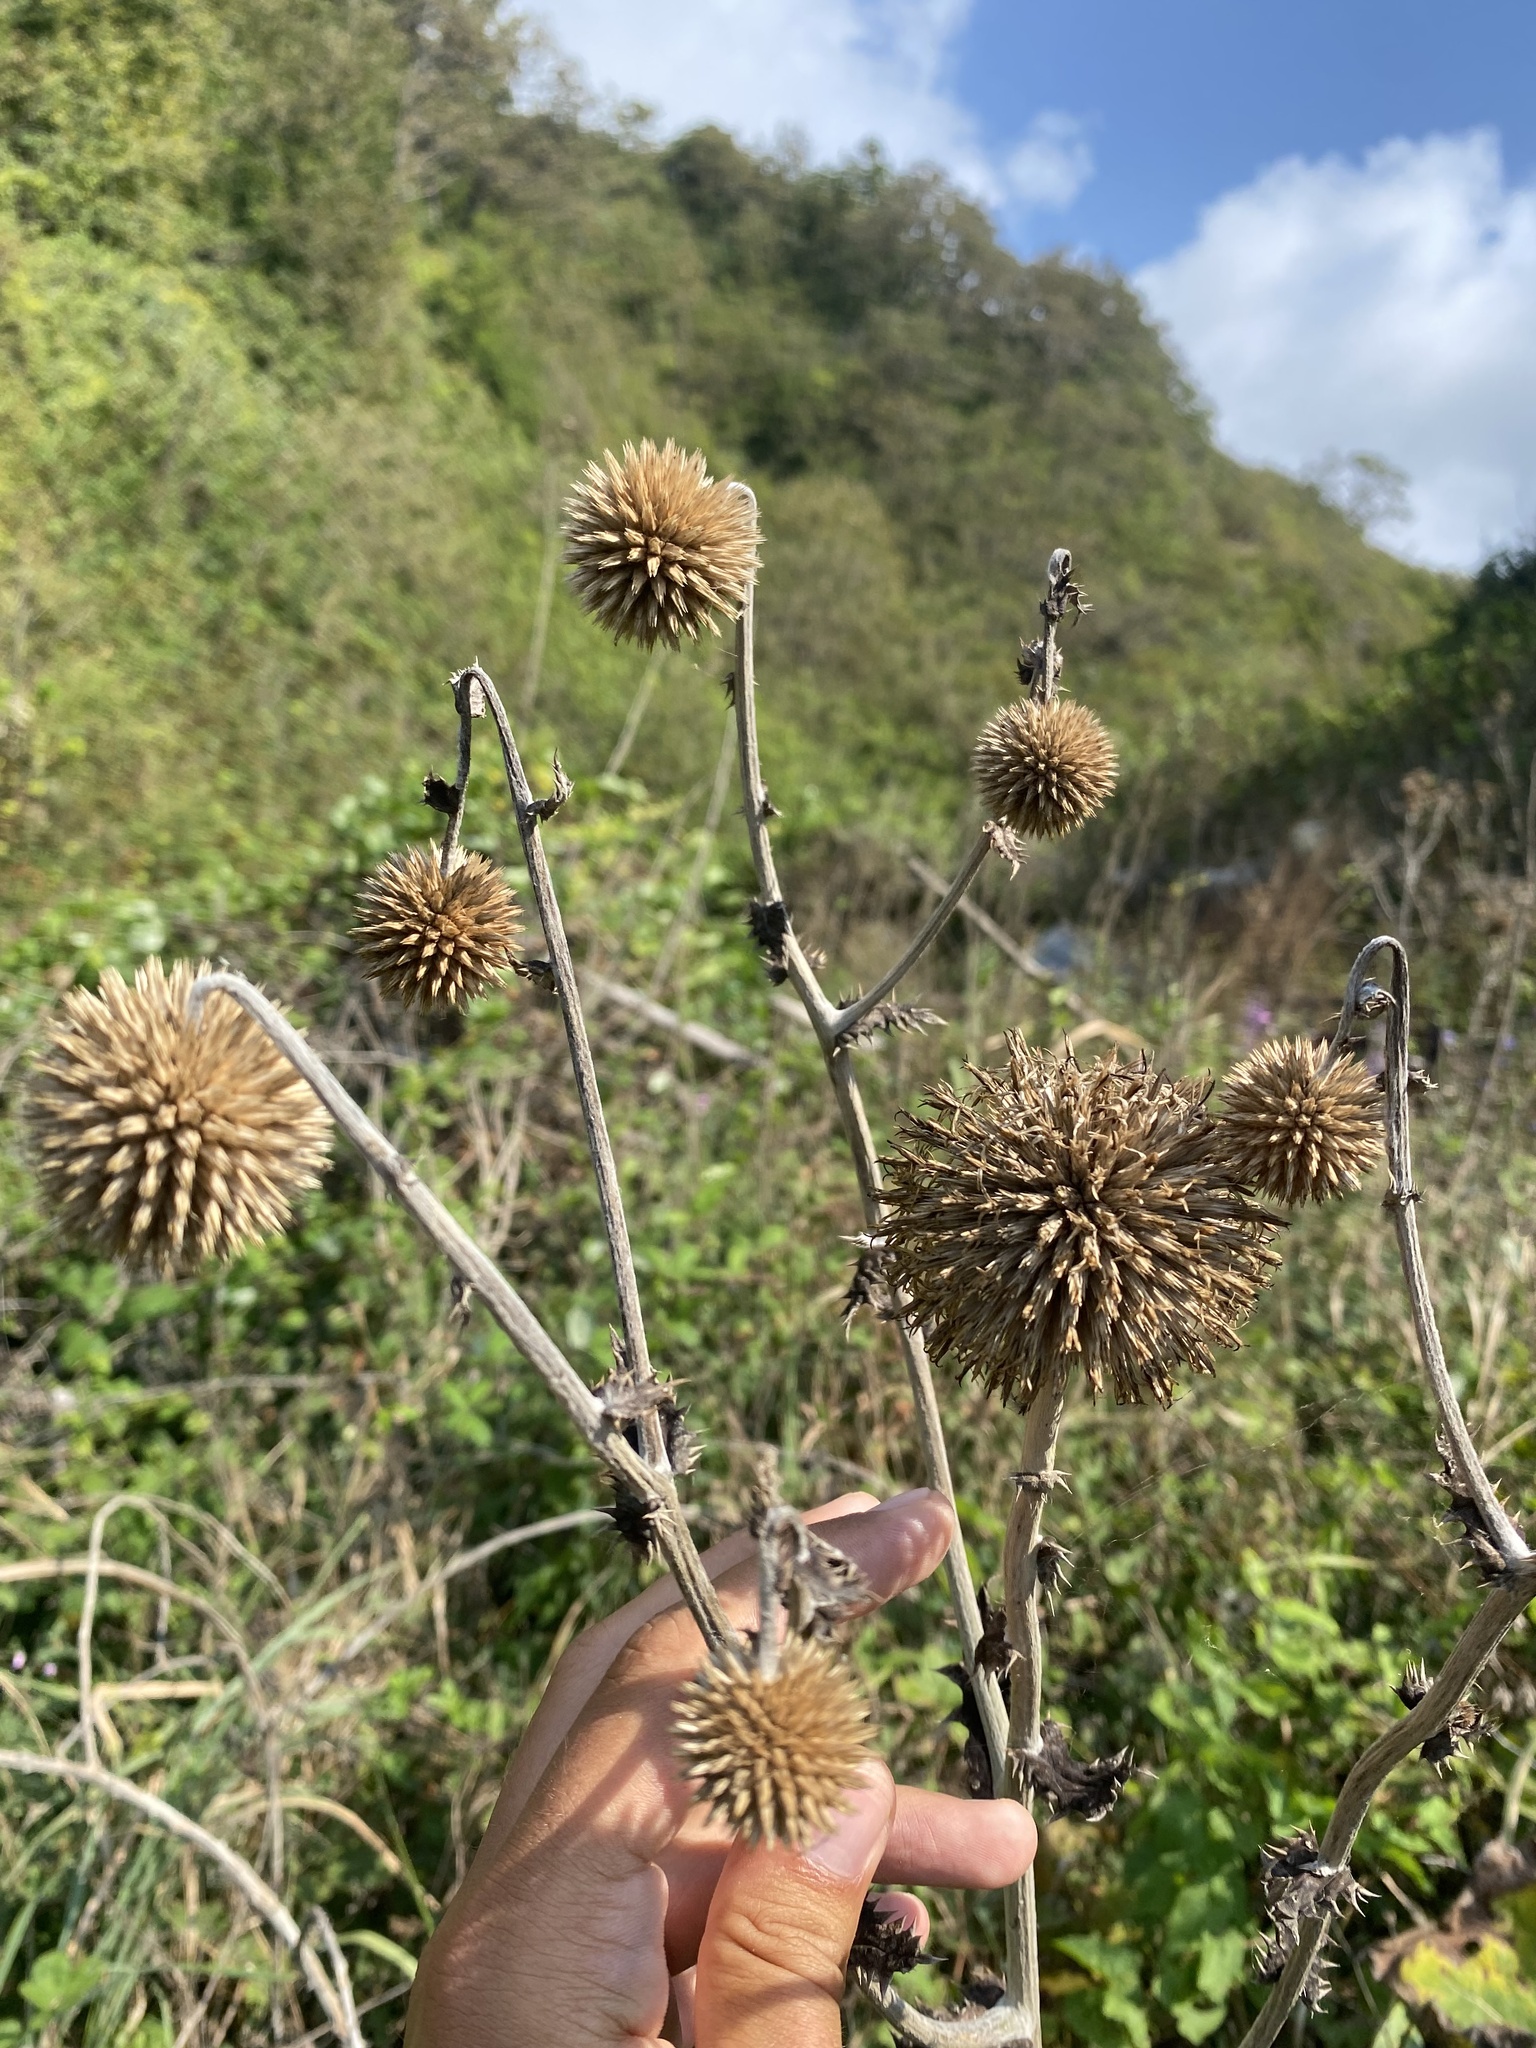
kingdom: Plantae
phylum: Tracheophyta
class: Magnoliopsida
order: Asterales
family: Asteraceae
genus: Echinops
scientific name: Echinops sphaerocephalus
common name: Glandular globe-thistle
